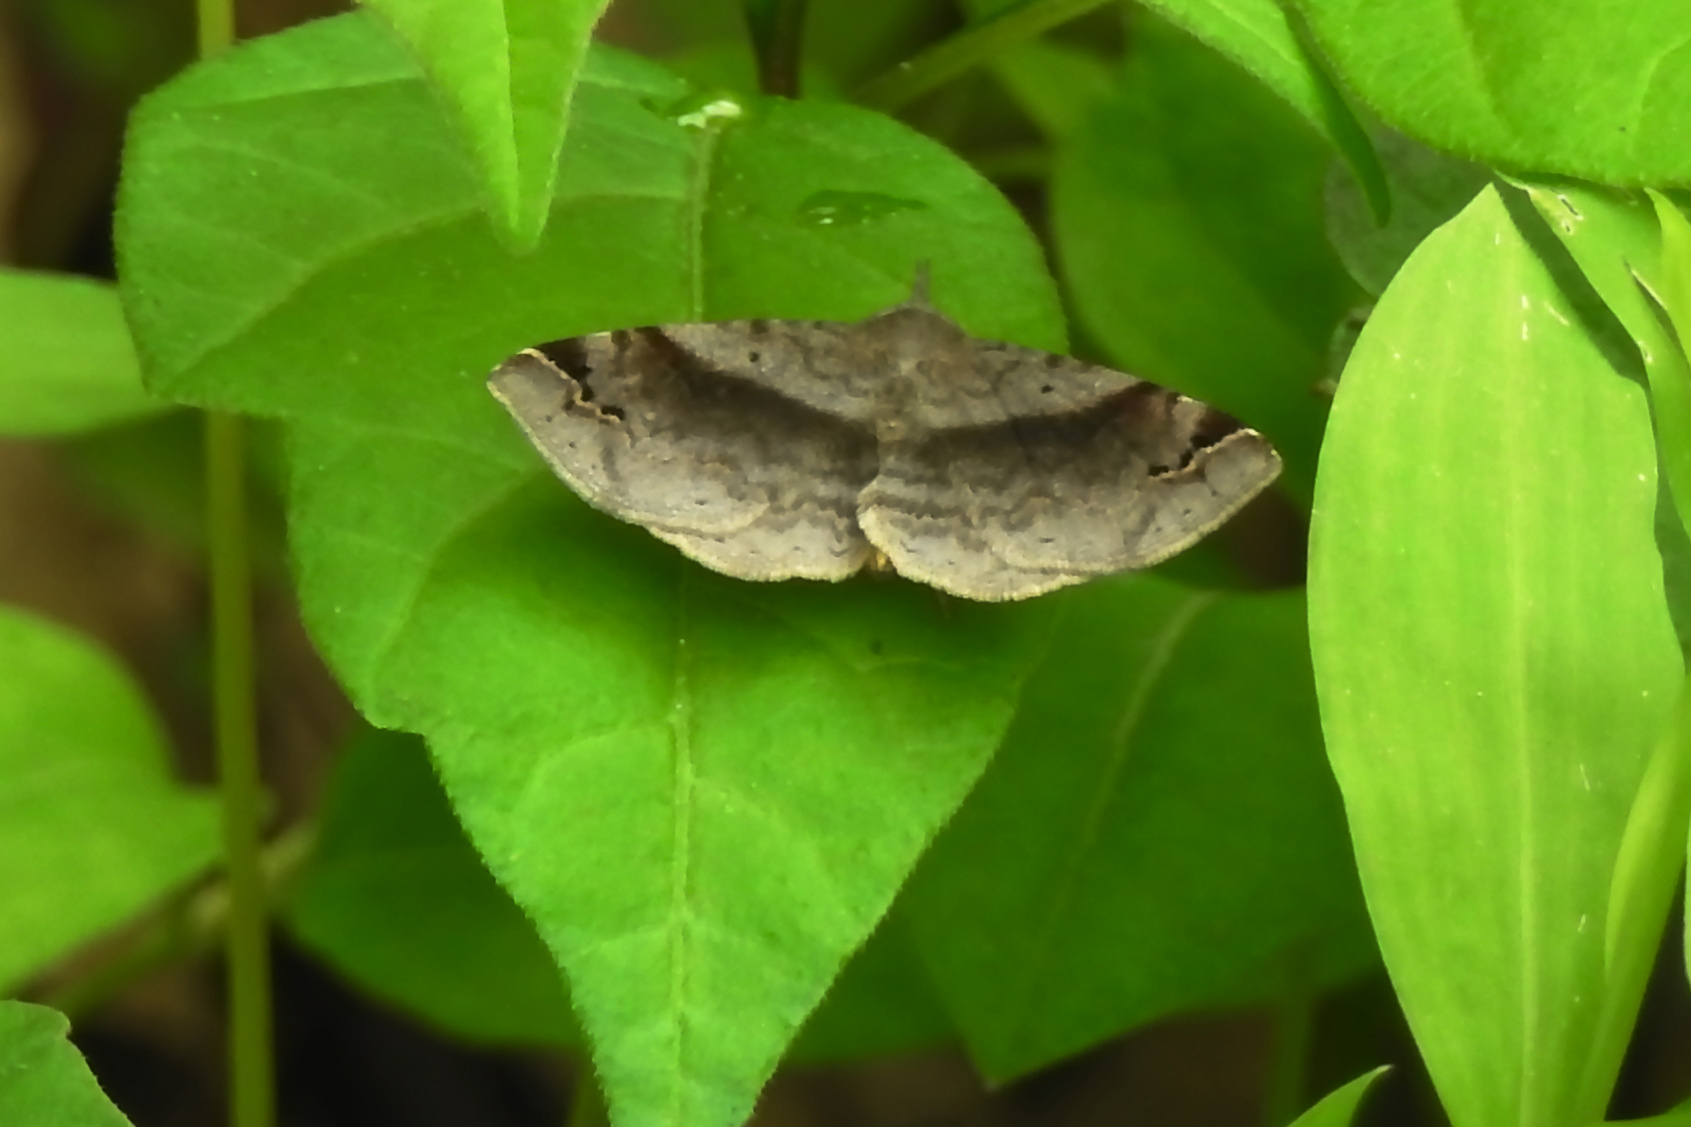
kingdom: Animalia
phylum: Arthropoda
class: Insecta
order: Lepidoptera
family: Erebidae
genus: Spargaloma
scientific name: Spargaloma sexpunctata
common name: Six-spotted gray
